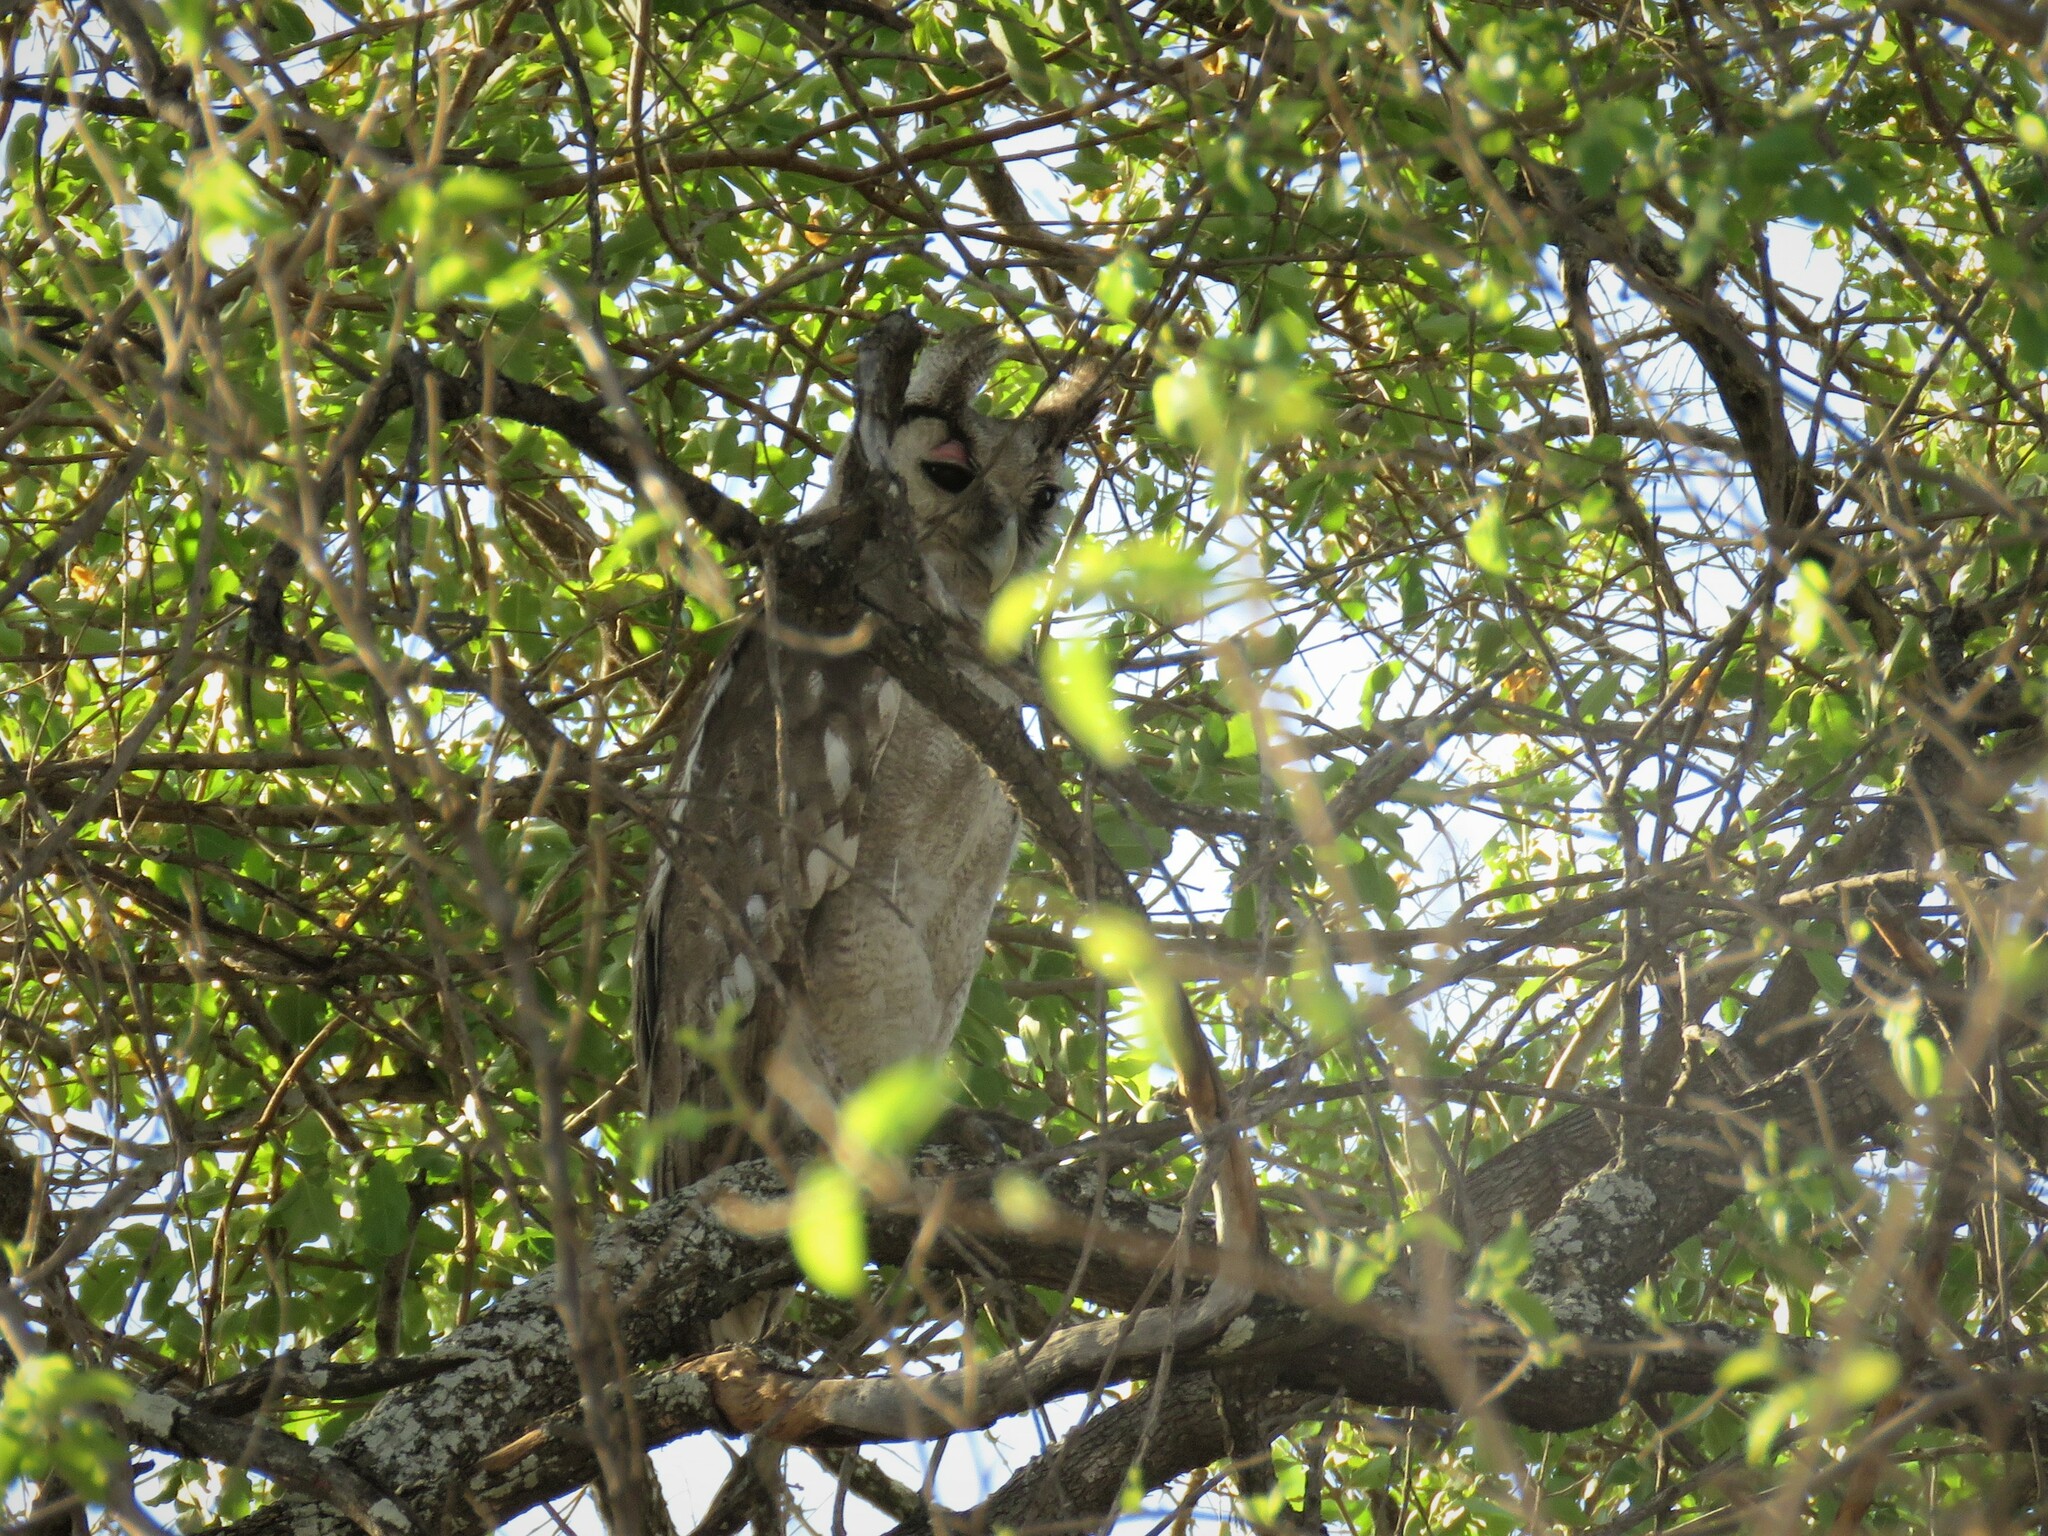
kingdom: Animalia
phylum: Chordata
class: Aves
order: Strigiformes
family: Strigidae
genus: Bubo
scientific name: Bubo lacteus
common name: Verreaux's eagle-owl
